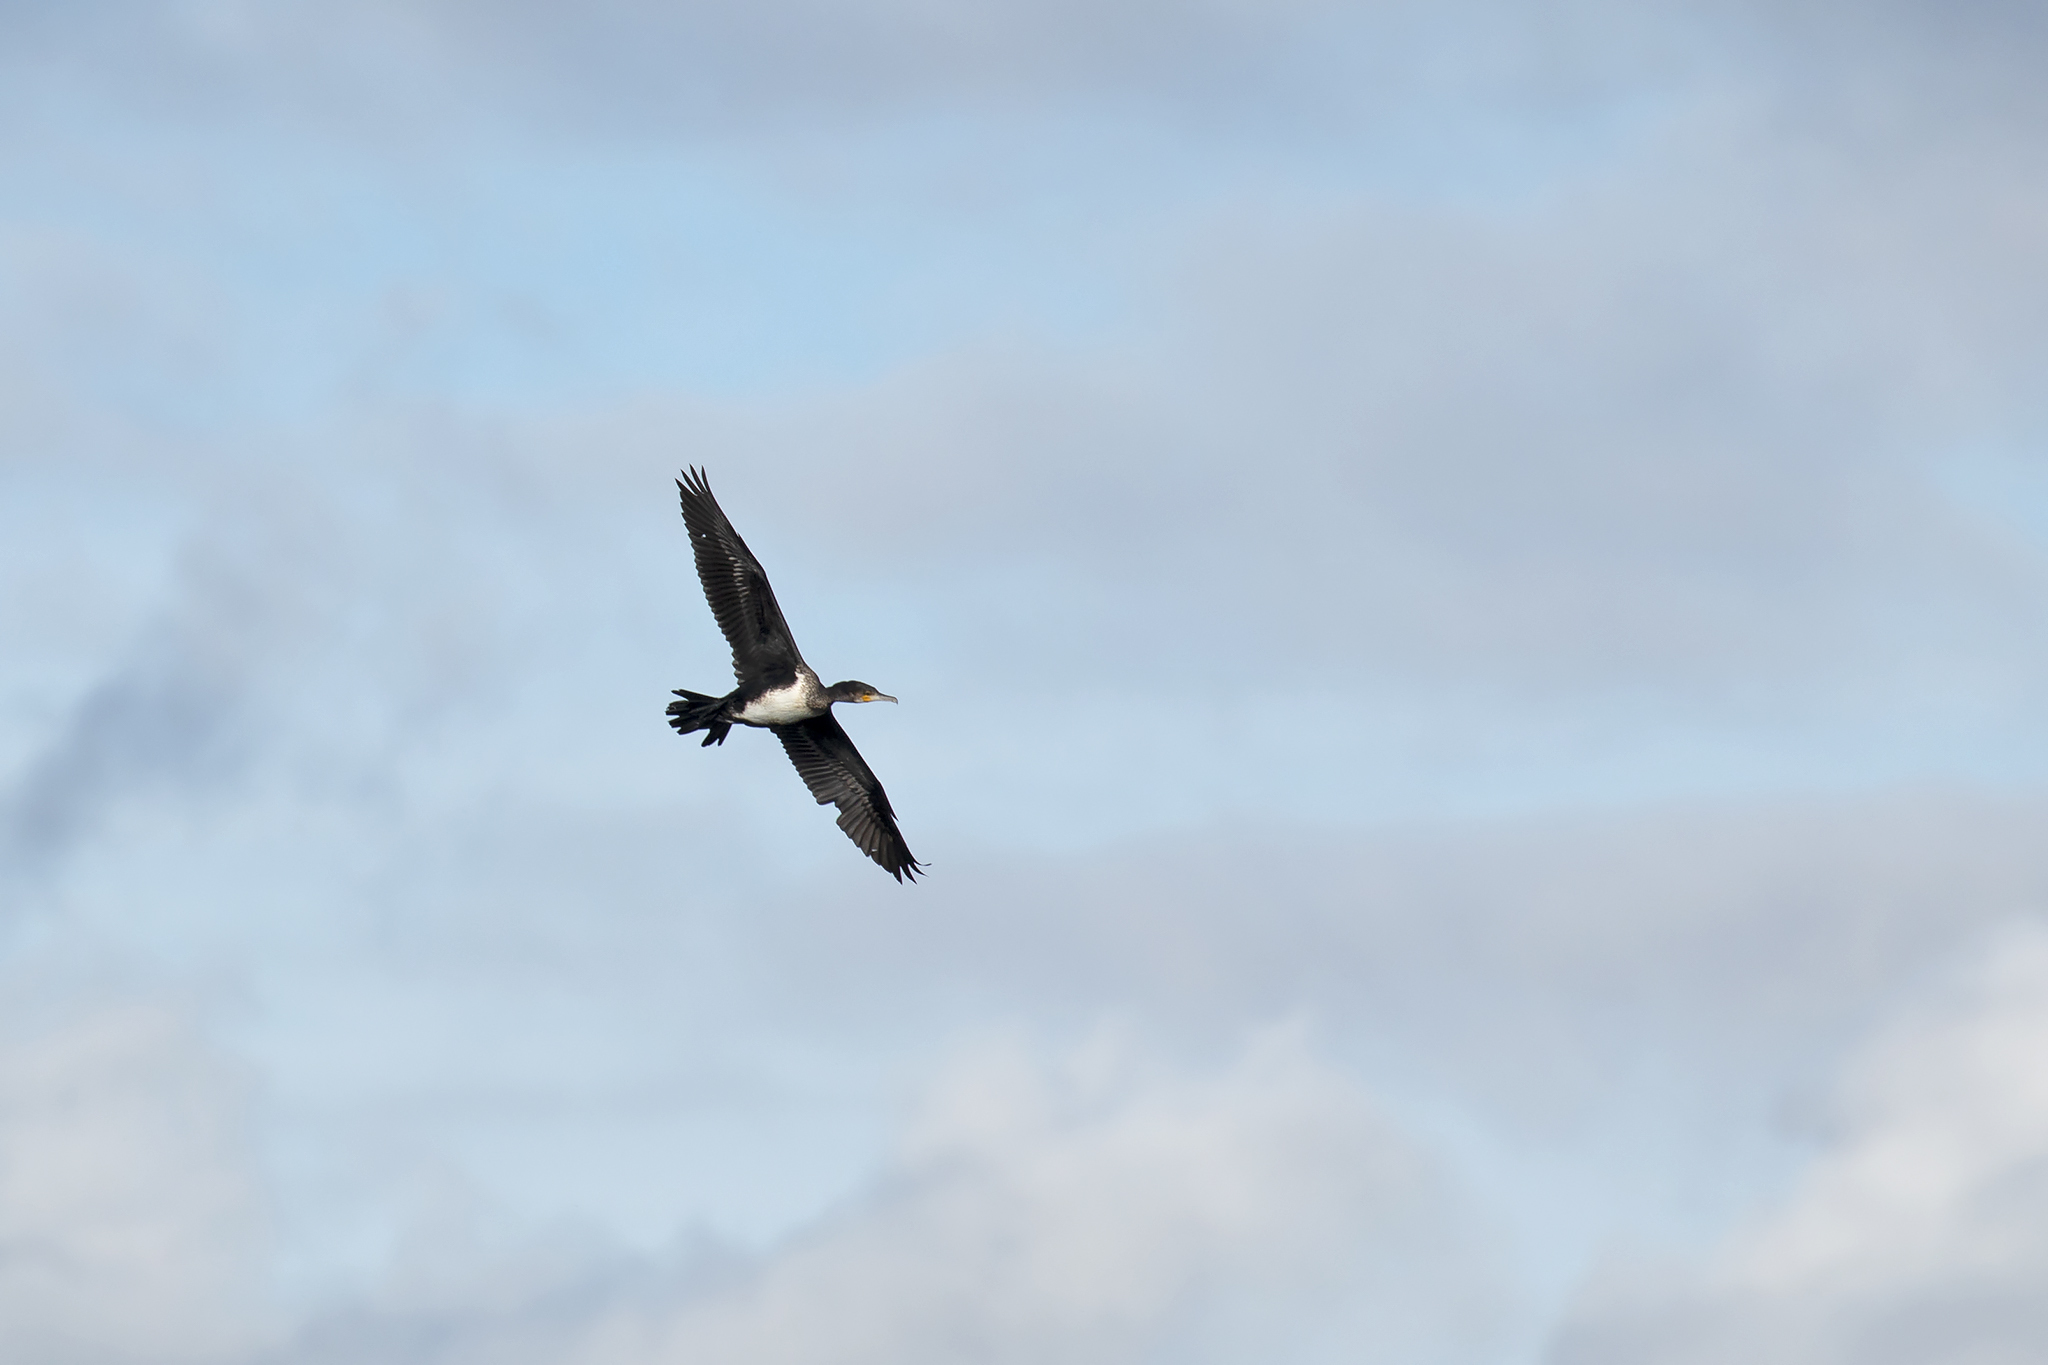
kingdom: Animalia
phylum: Chordata
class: Aves
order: Suliformes
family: Phalacrocoracidae
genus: Phalacrocorax
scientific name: Phalacrocorax carbo
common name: Great cormorant
